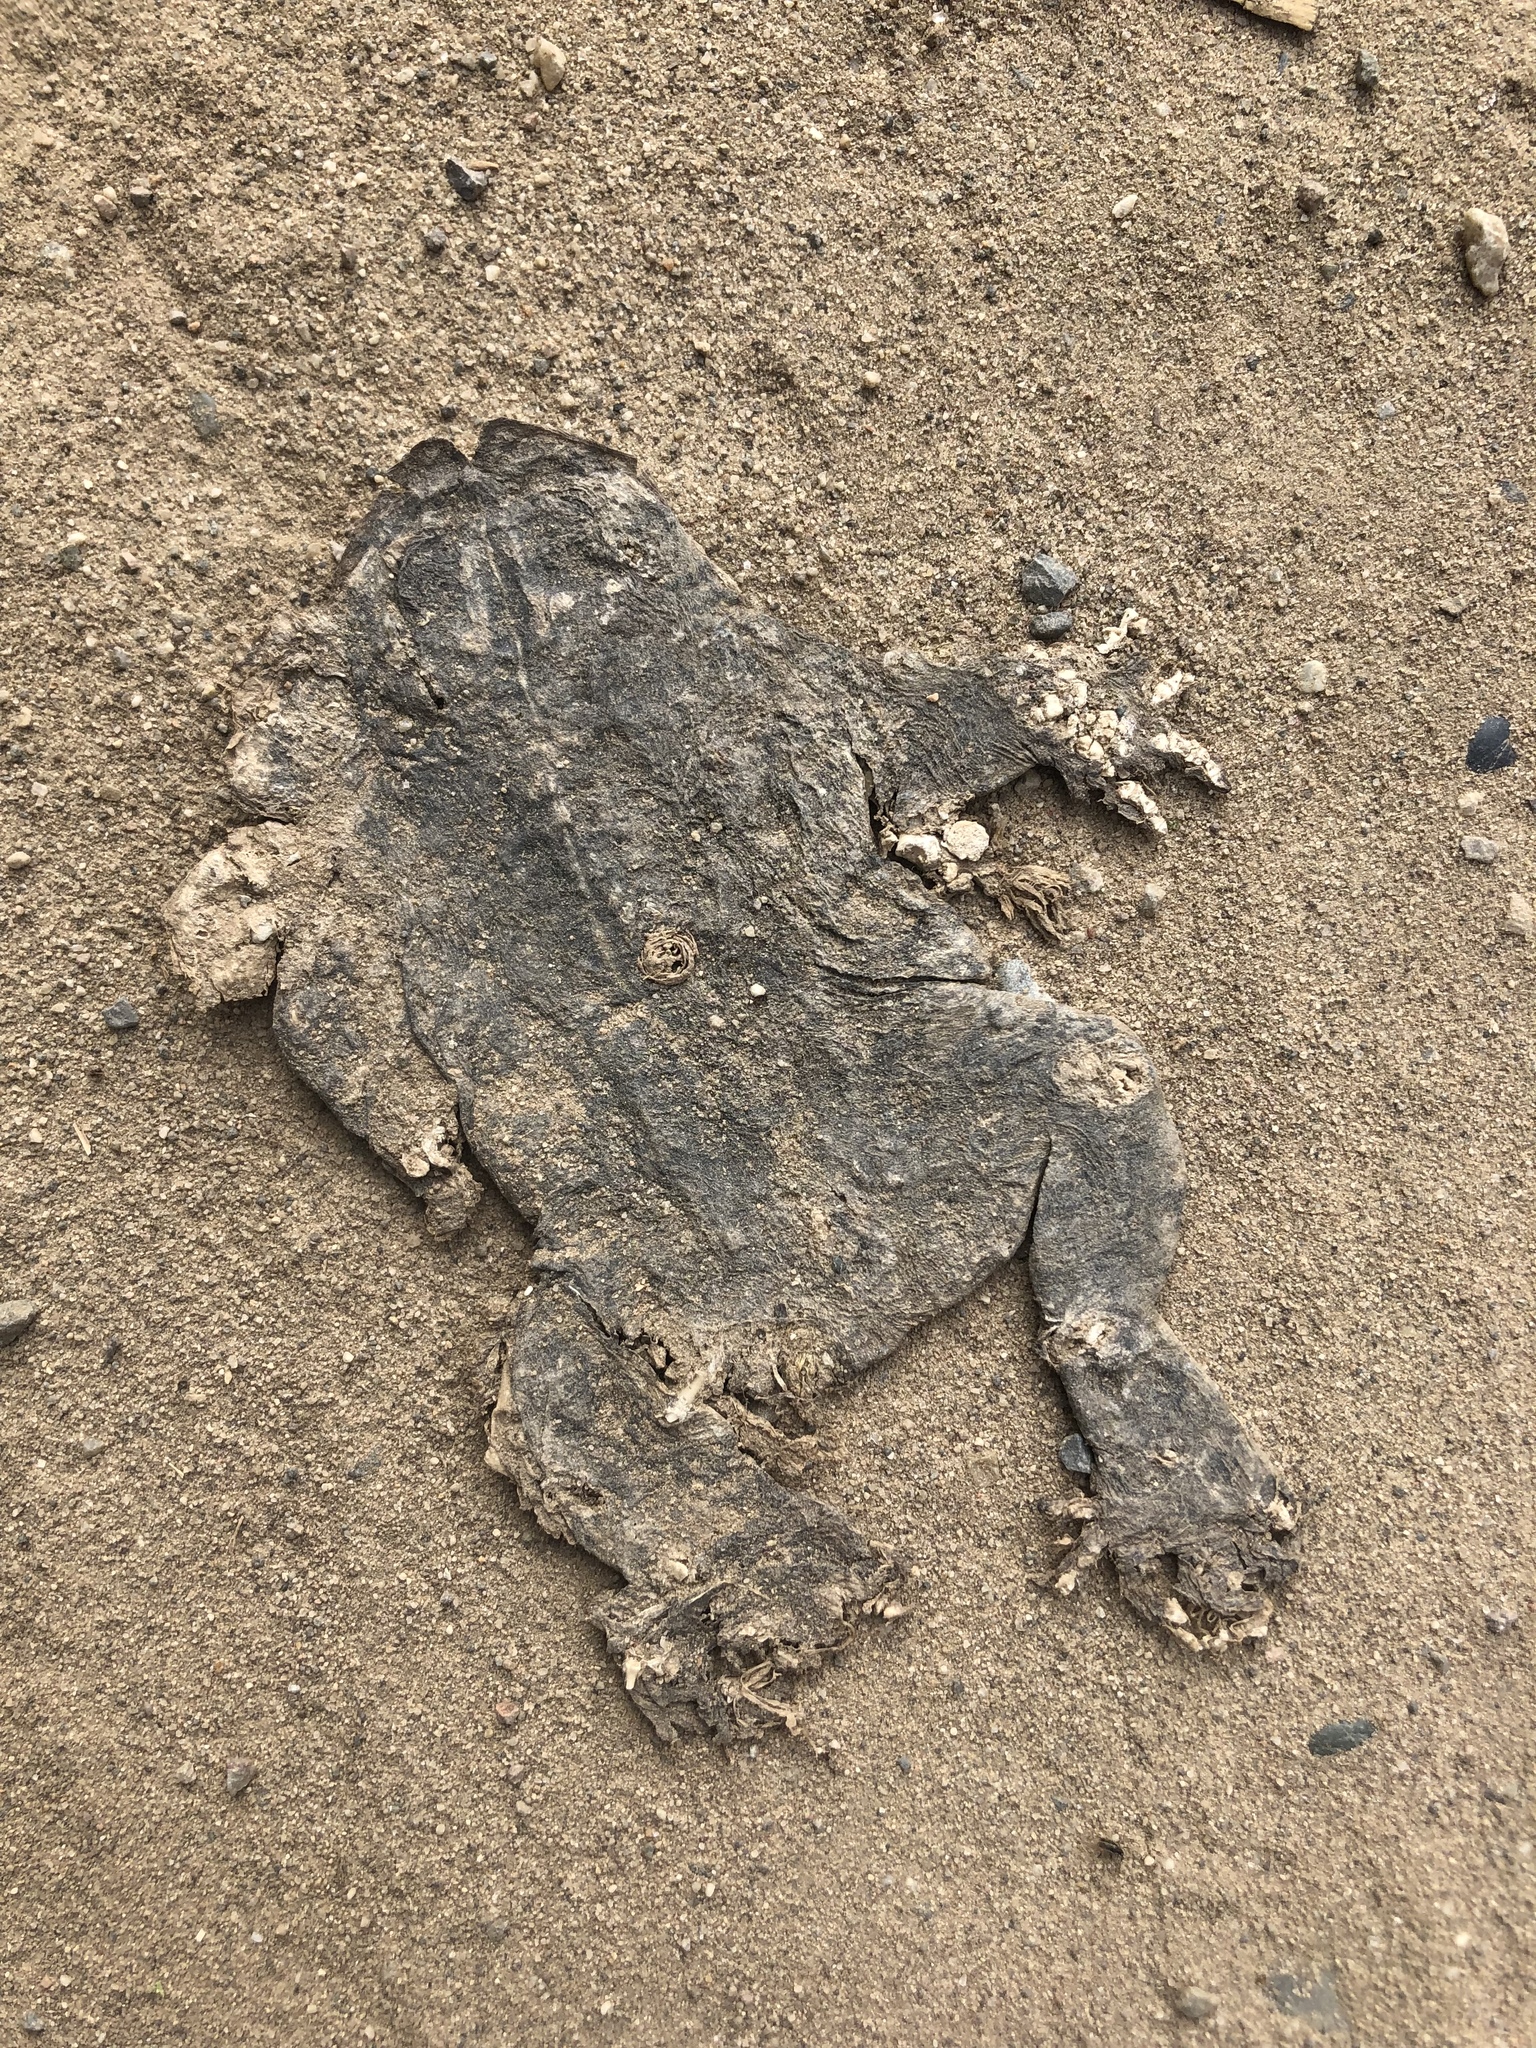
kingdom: Animalia
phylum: Chordata
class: Amphibia
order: Anura
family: Bufonidae
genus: Anaxyrus
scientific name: Anaxyrus boreas
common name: Western toad
